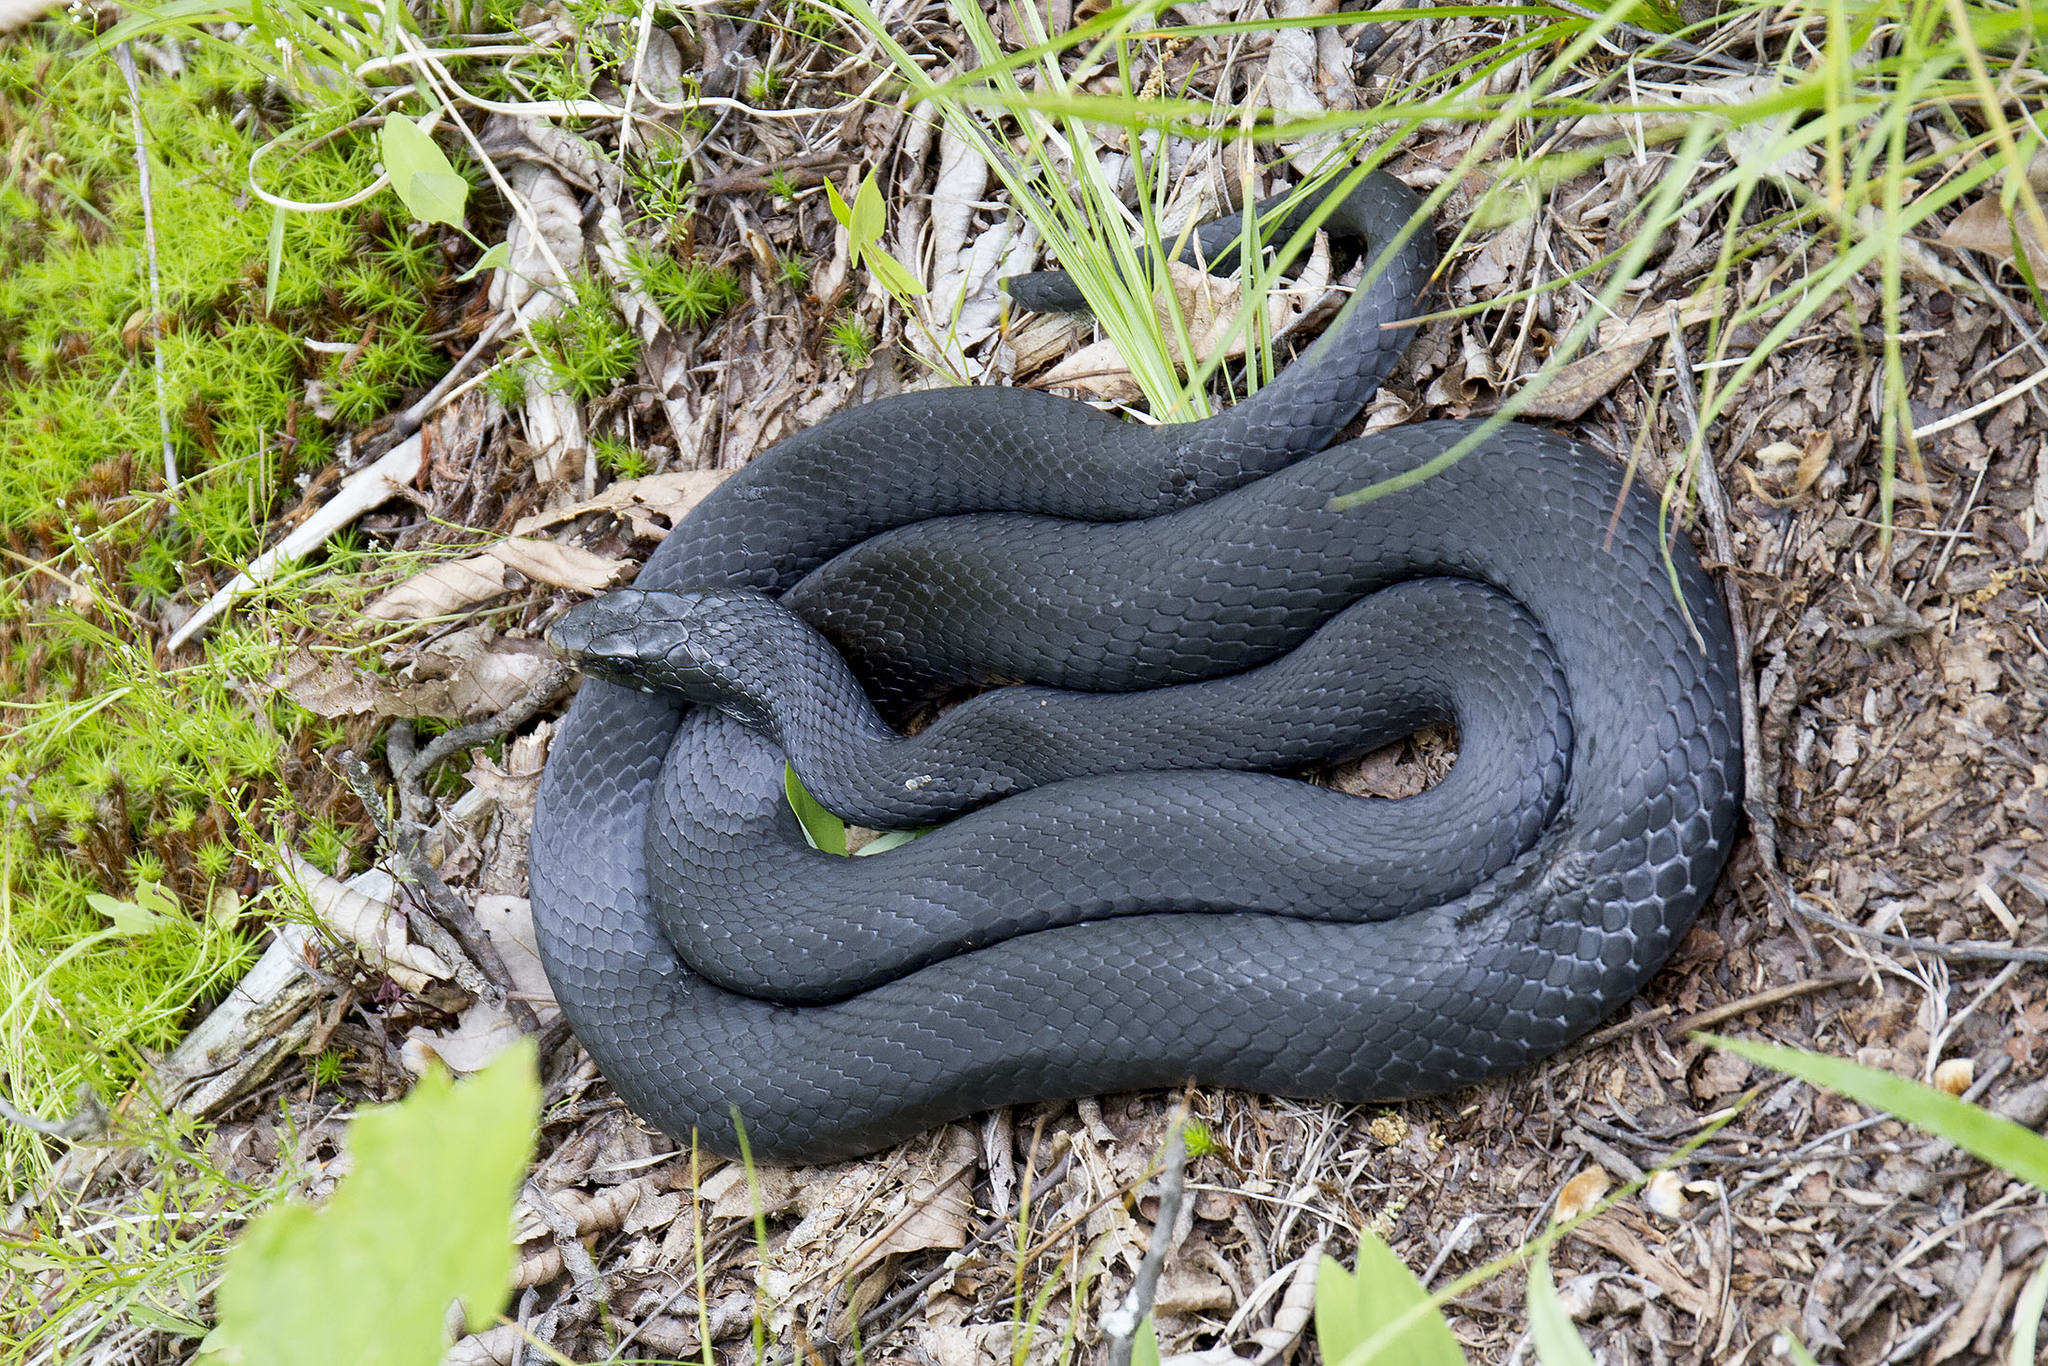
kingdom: Animalia
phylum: Chordata
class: Squamata
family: Colubridae
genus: Coluber
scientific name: Coluber constrictor
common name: Eastern racer
